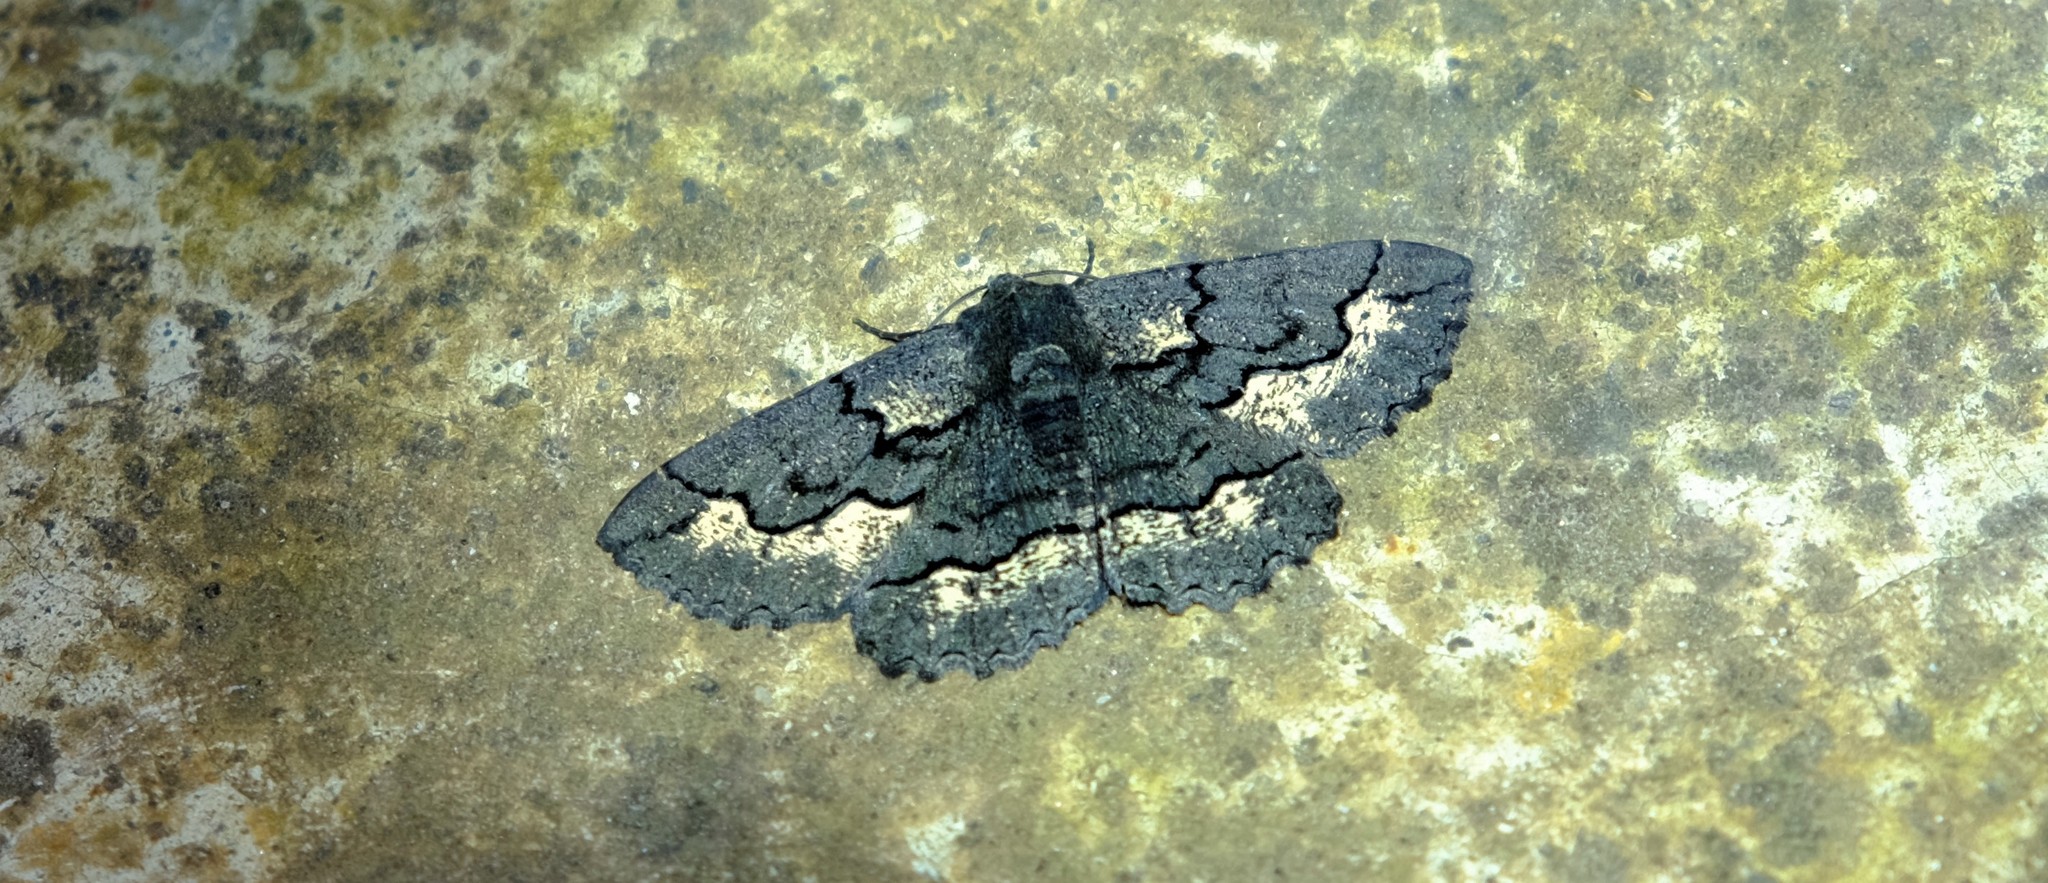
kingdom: Animalia
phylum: Arthropoda
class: Insecta
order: Lepidoptera
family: Geometridae
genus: Melanodes
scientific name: Melanodes anthracitaria
